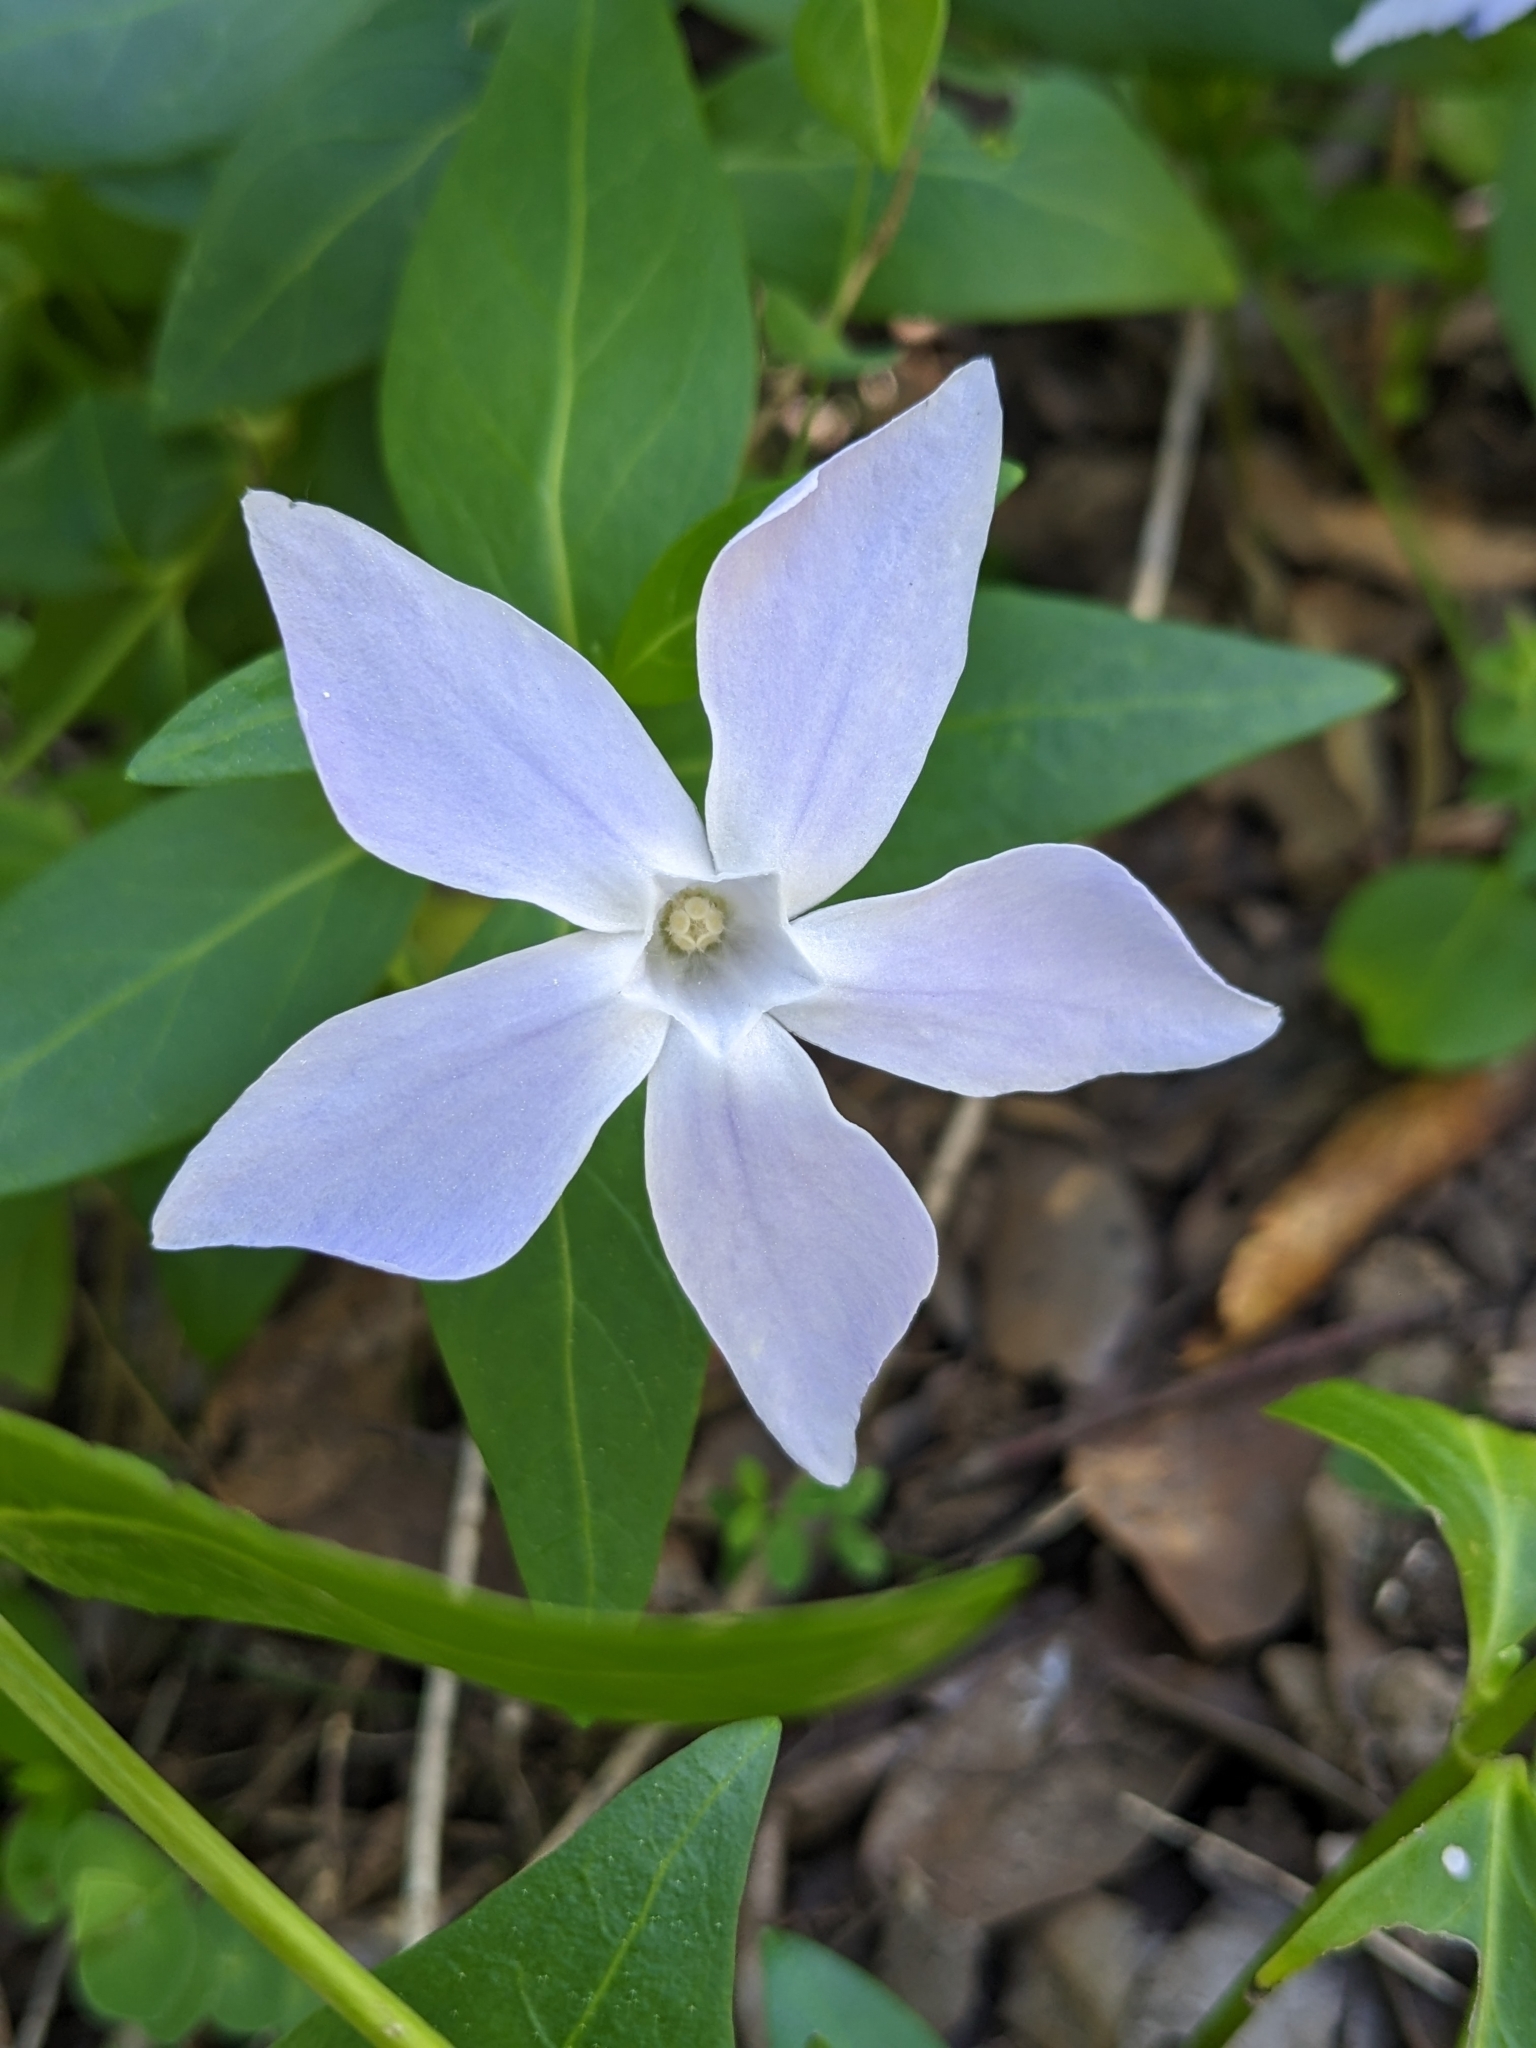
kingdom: Plantae
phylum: Tracheophyta
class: Magnoliopsida
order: Gentianales
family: Apocynaceae
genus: Vinca
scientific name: Vinca difformis
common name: Intermediate periwinkle
